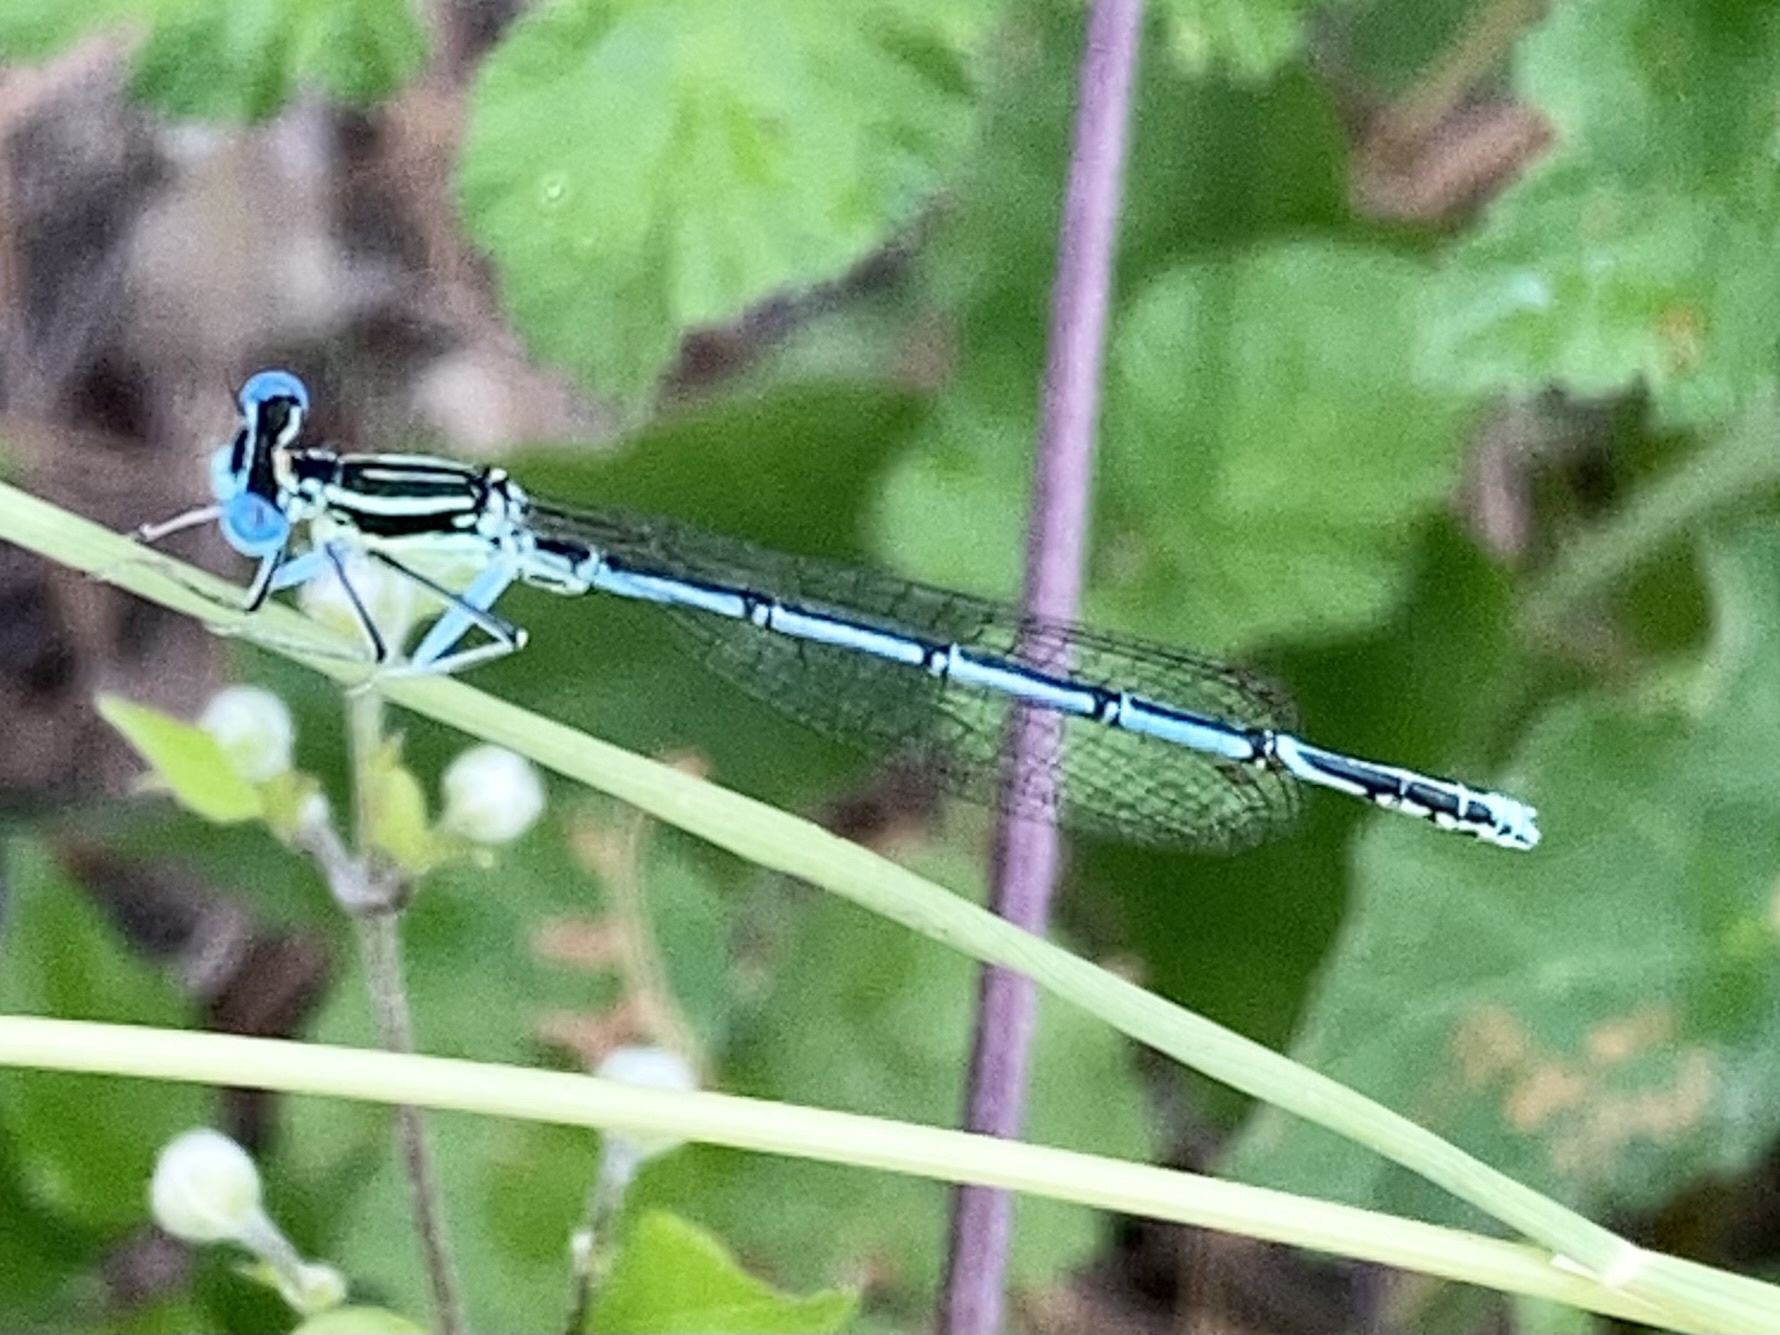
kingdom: Animalia
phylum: Arthropoda
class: Insecta
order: Odonata
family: Platycnemididae
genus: Platycnemis
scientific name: Platycnemis pennipes
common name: White-legged damselfly
